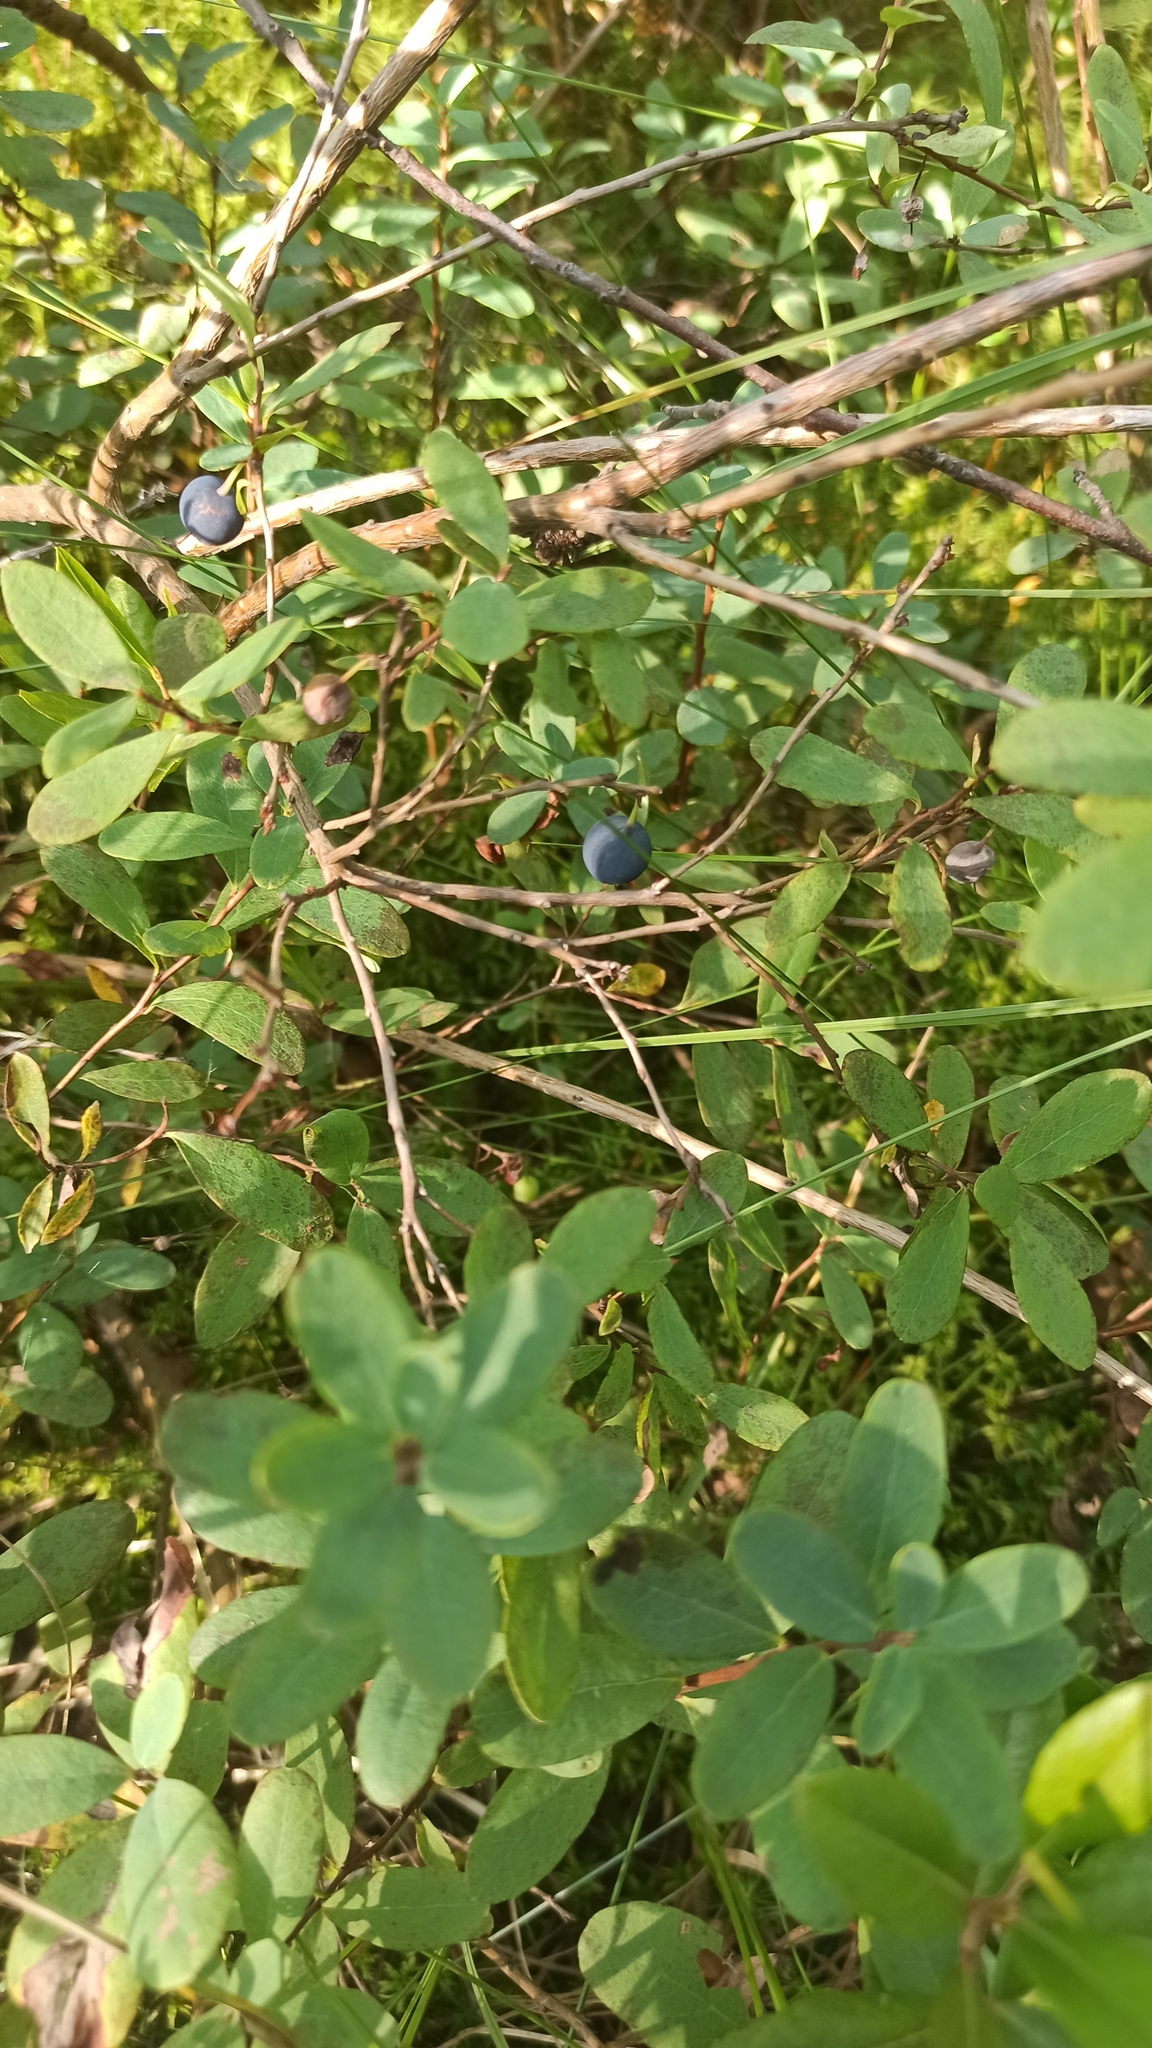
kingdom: Plantae
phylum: Tracheophyta
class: Magnoliopsida
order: Ericales
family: Ericaceae
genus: Vaccinium
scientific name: Vaccinium uliginosum
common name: Bog bilberry
